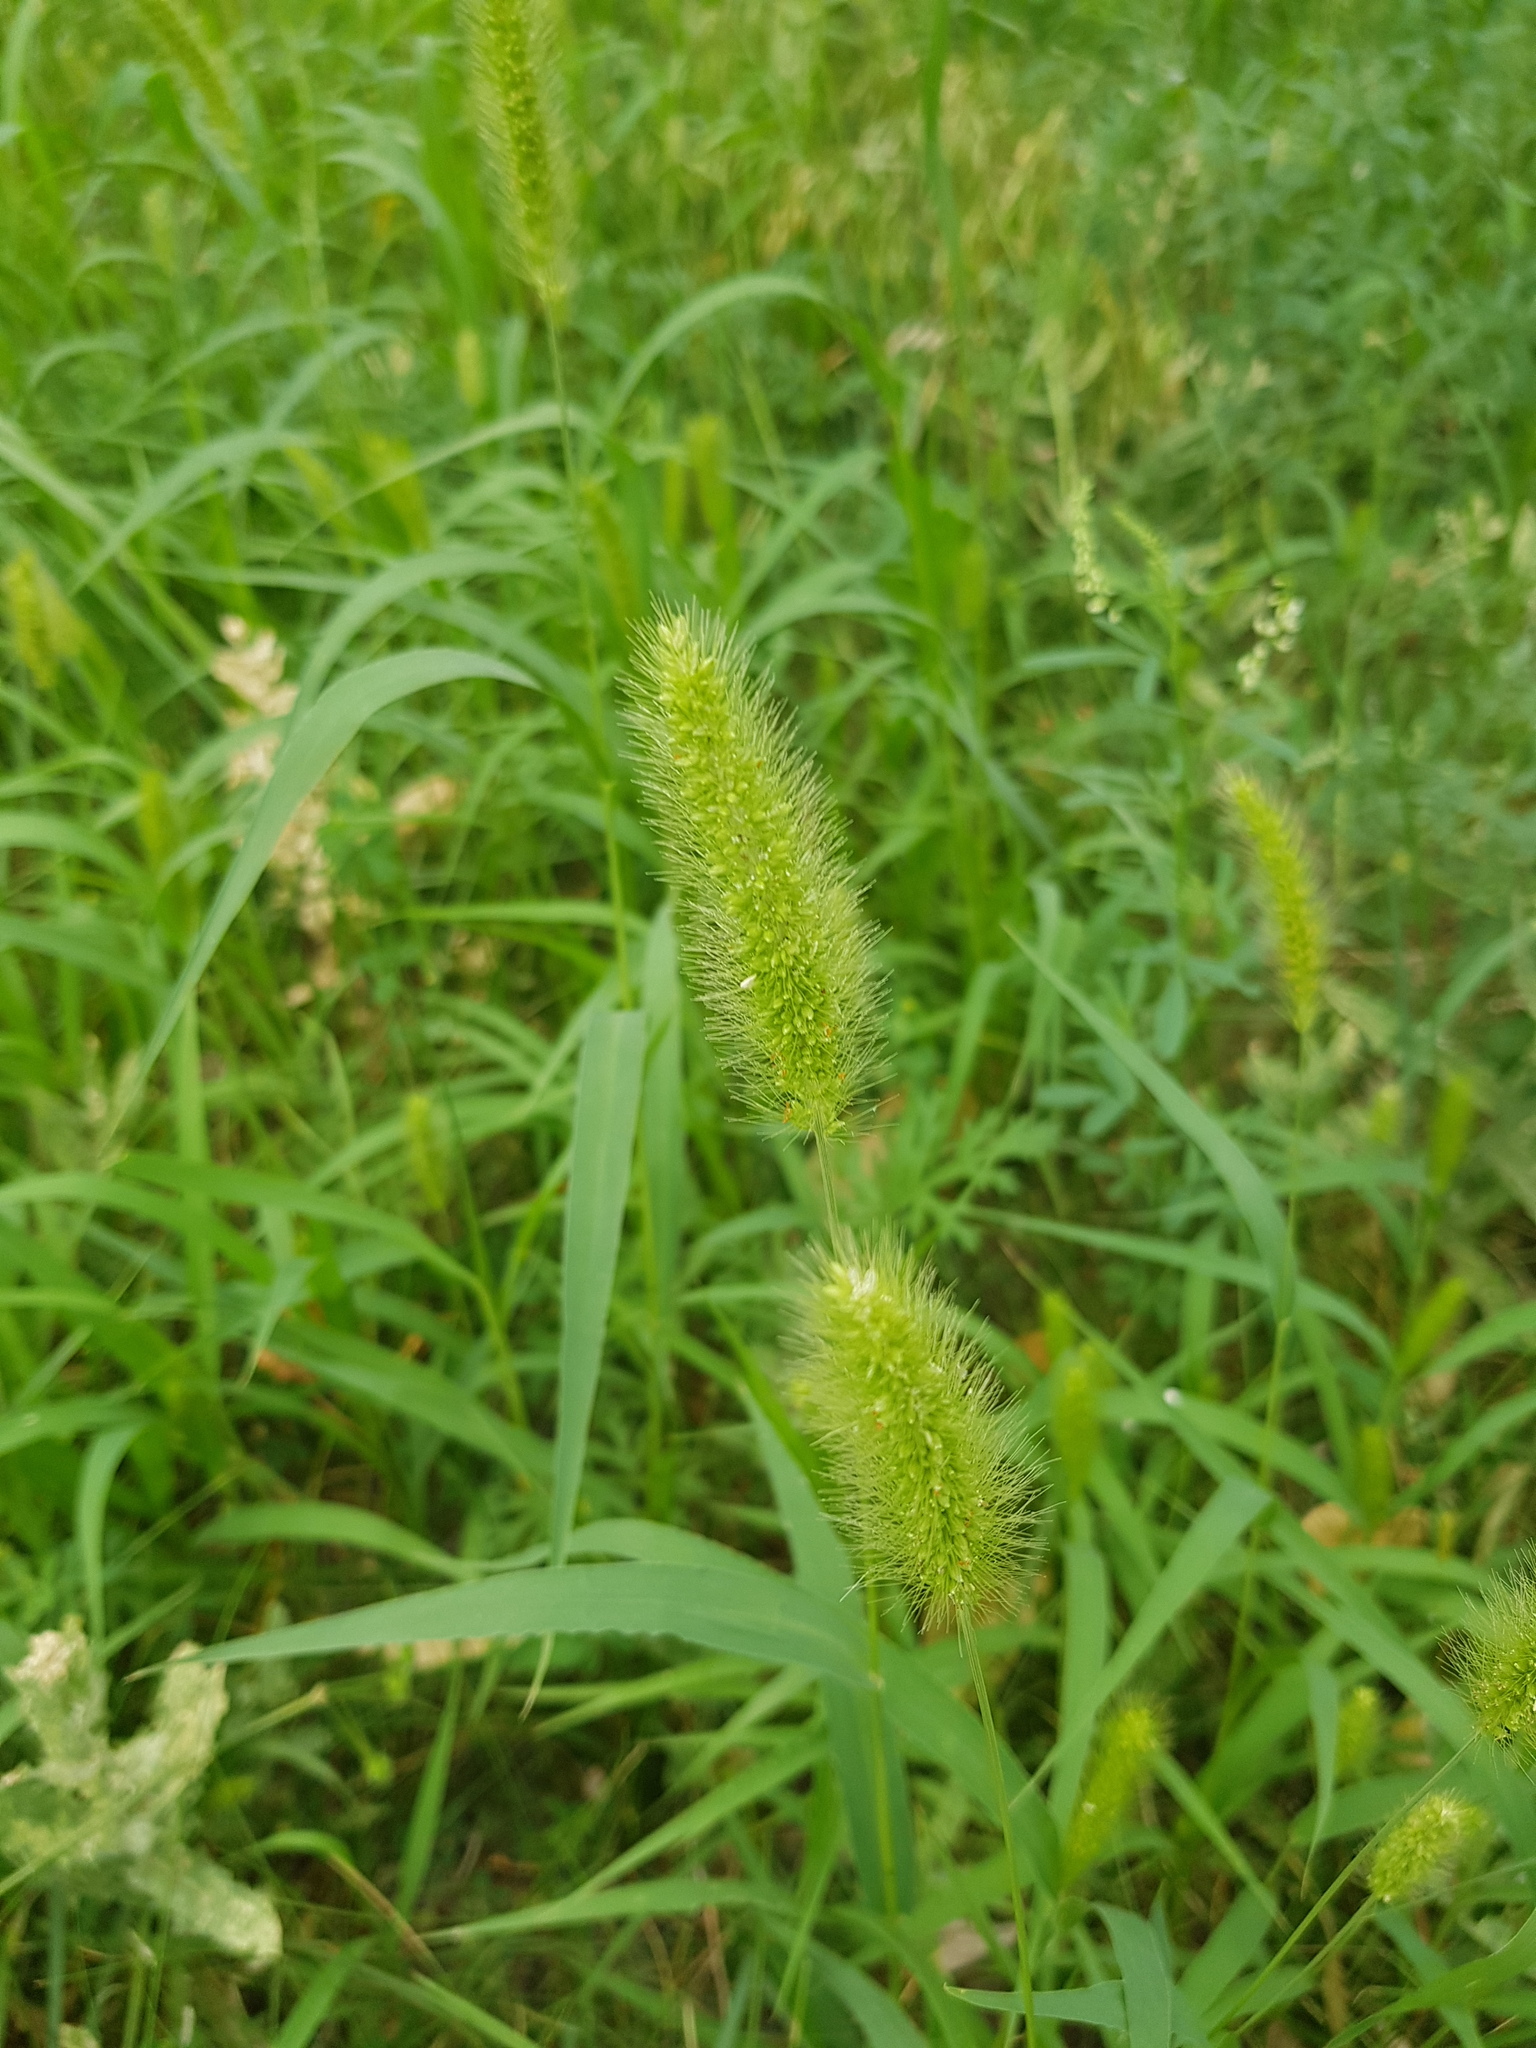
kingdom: Plantae
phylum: Tracheophyta
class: Liliopsida
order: Poales
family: Poaceae
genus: Setaria
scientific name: Setaria viridis
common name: Green bristlegrass
